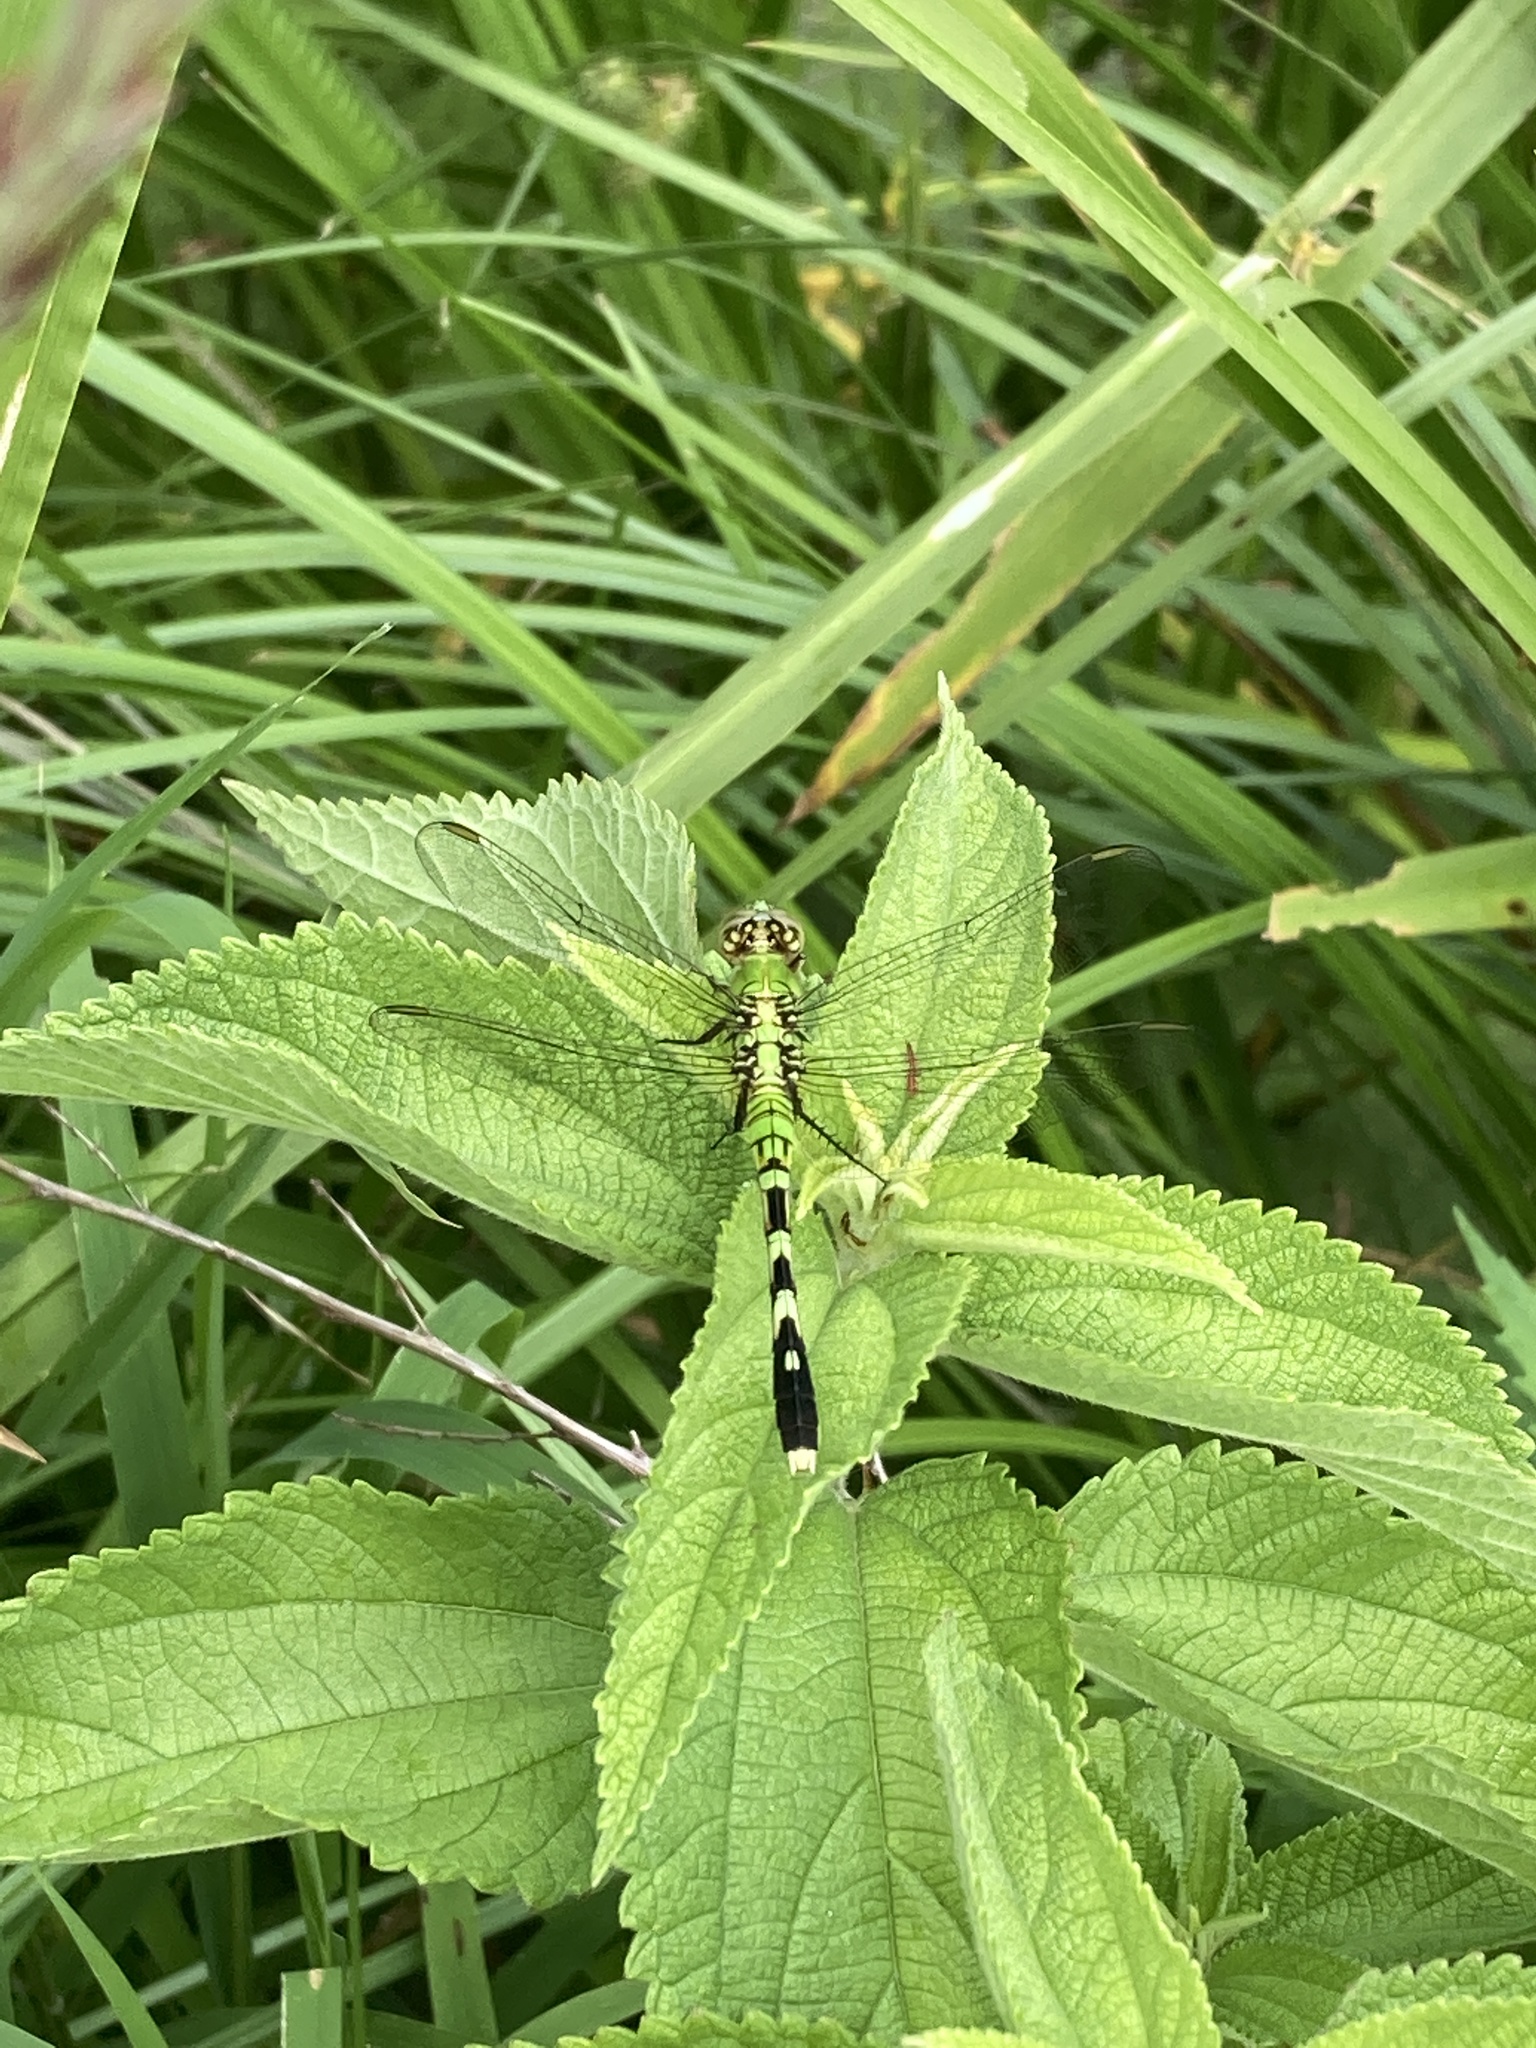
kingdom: Animalia
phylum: Arthropoda
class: Insecta
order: Odonata
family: Libellulidae
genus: Erythemis
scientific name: Erythemis simplicicollis
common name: Eastern pondhawk
